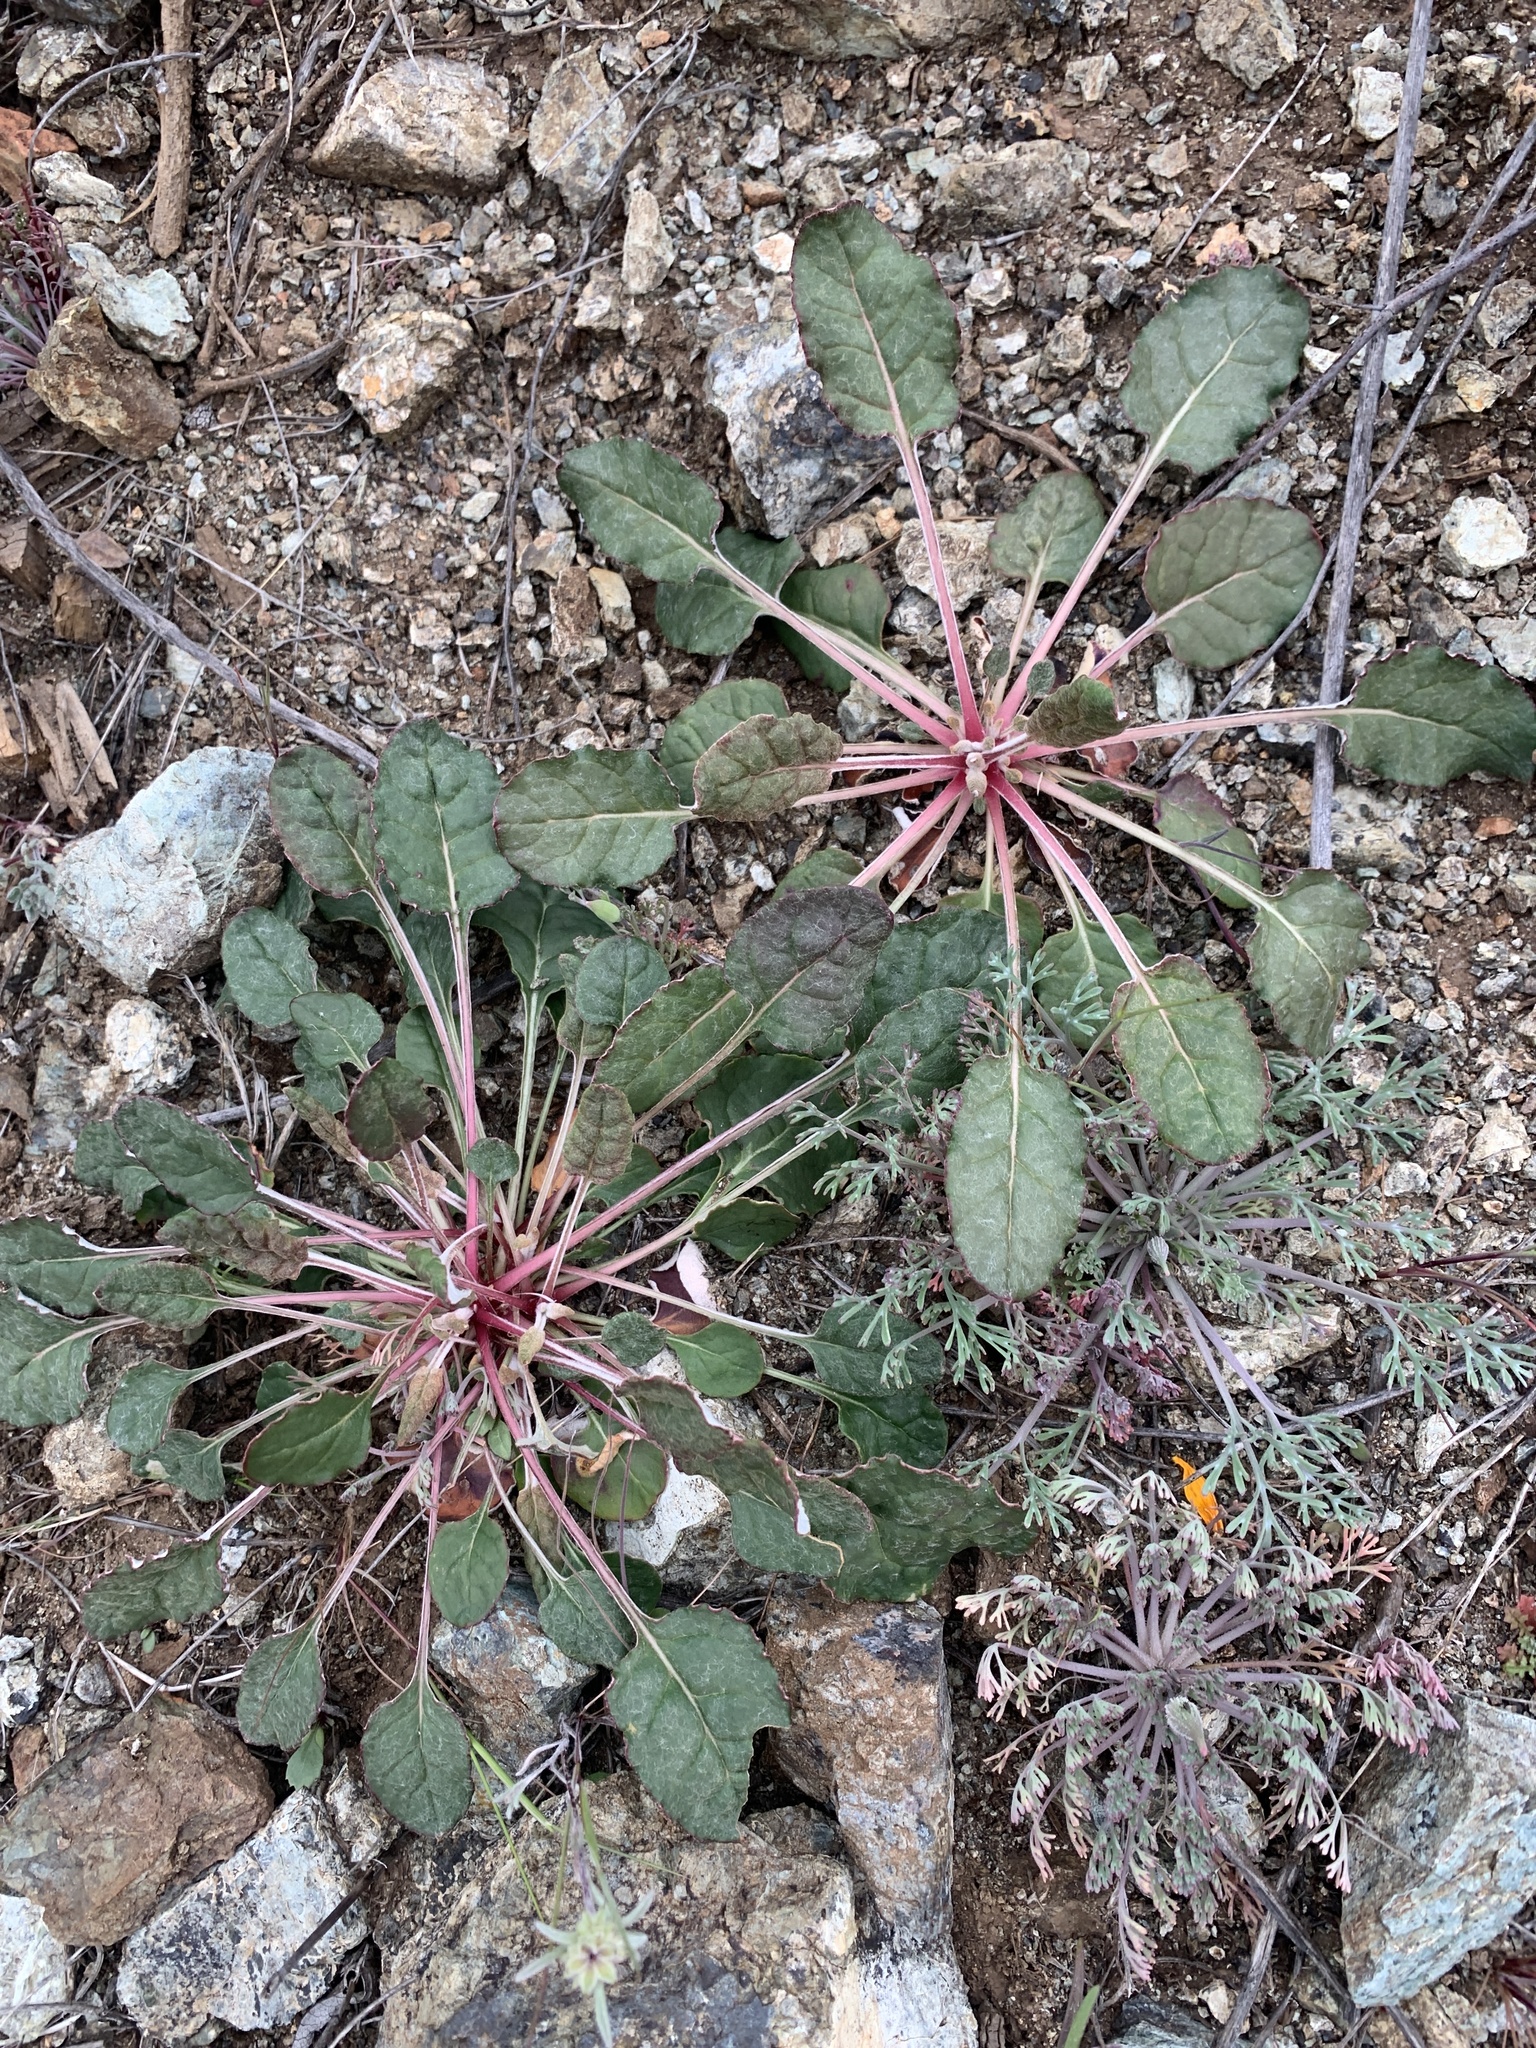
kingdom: Plantae
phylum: Tracheophyta
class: Magnoliopsida
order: Caryophyllales
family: Polygonaceae
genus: Eriogonum
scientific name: Eriogonum nudum
